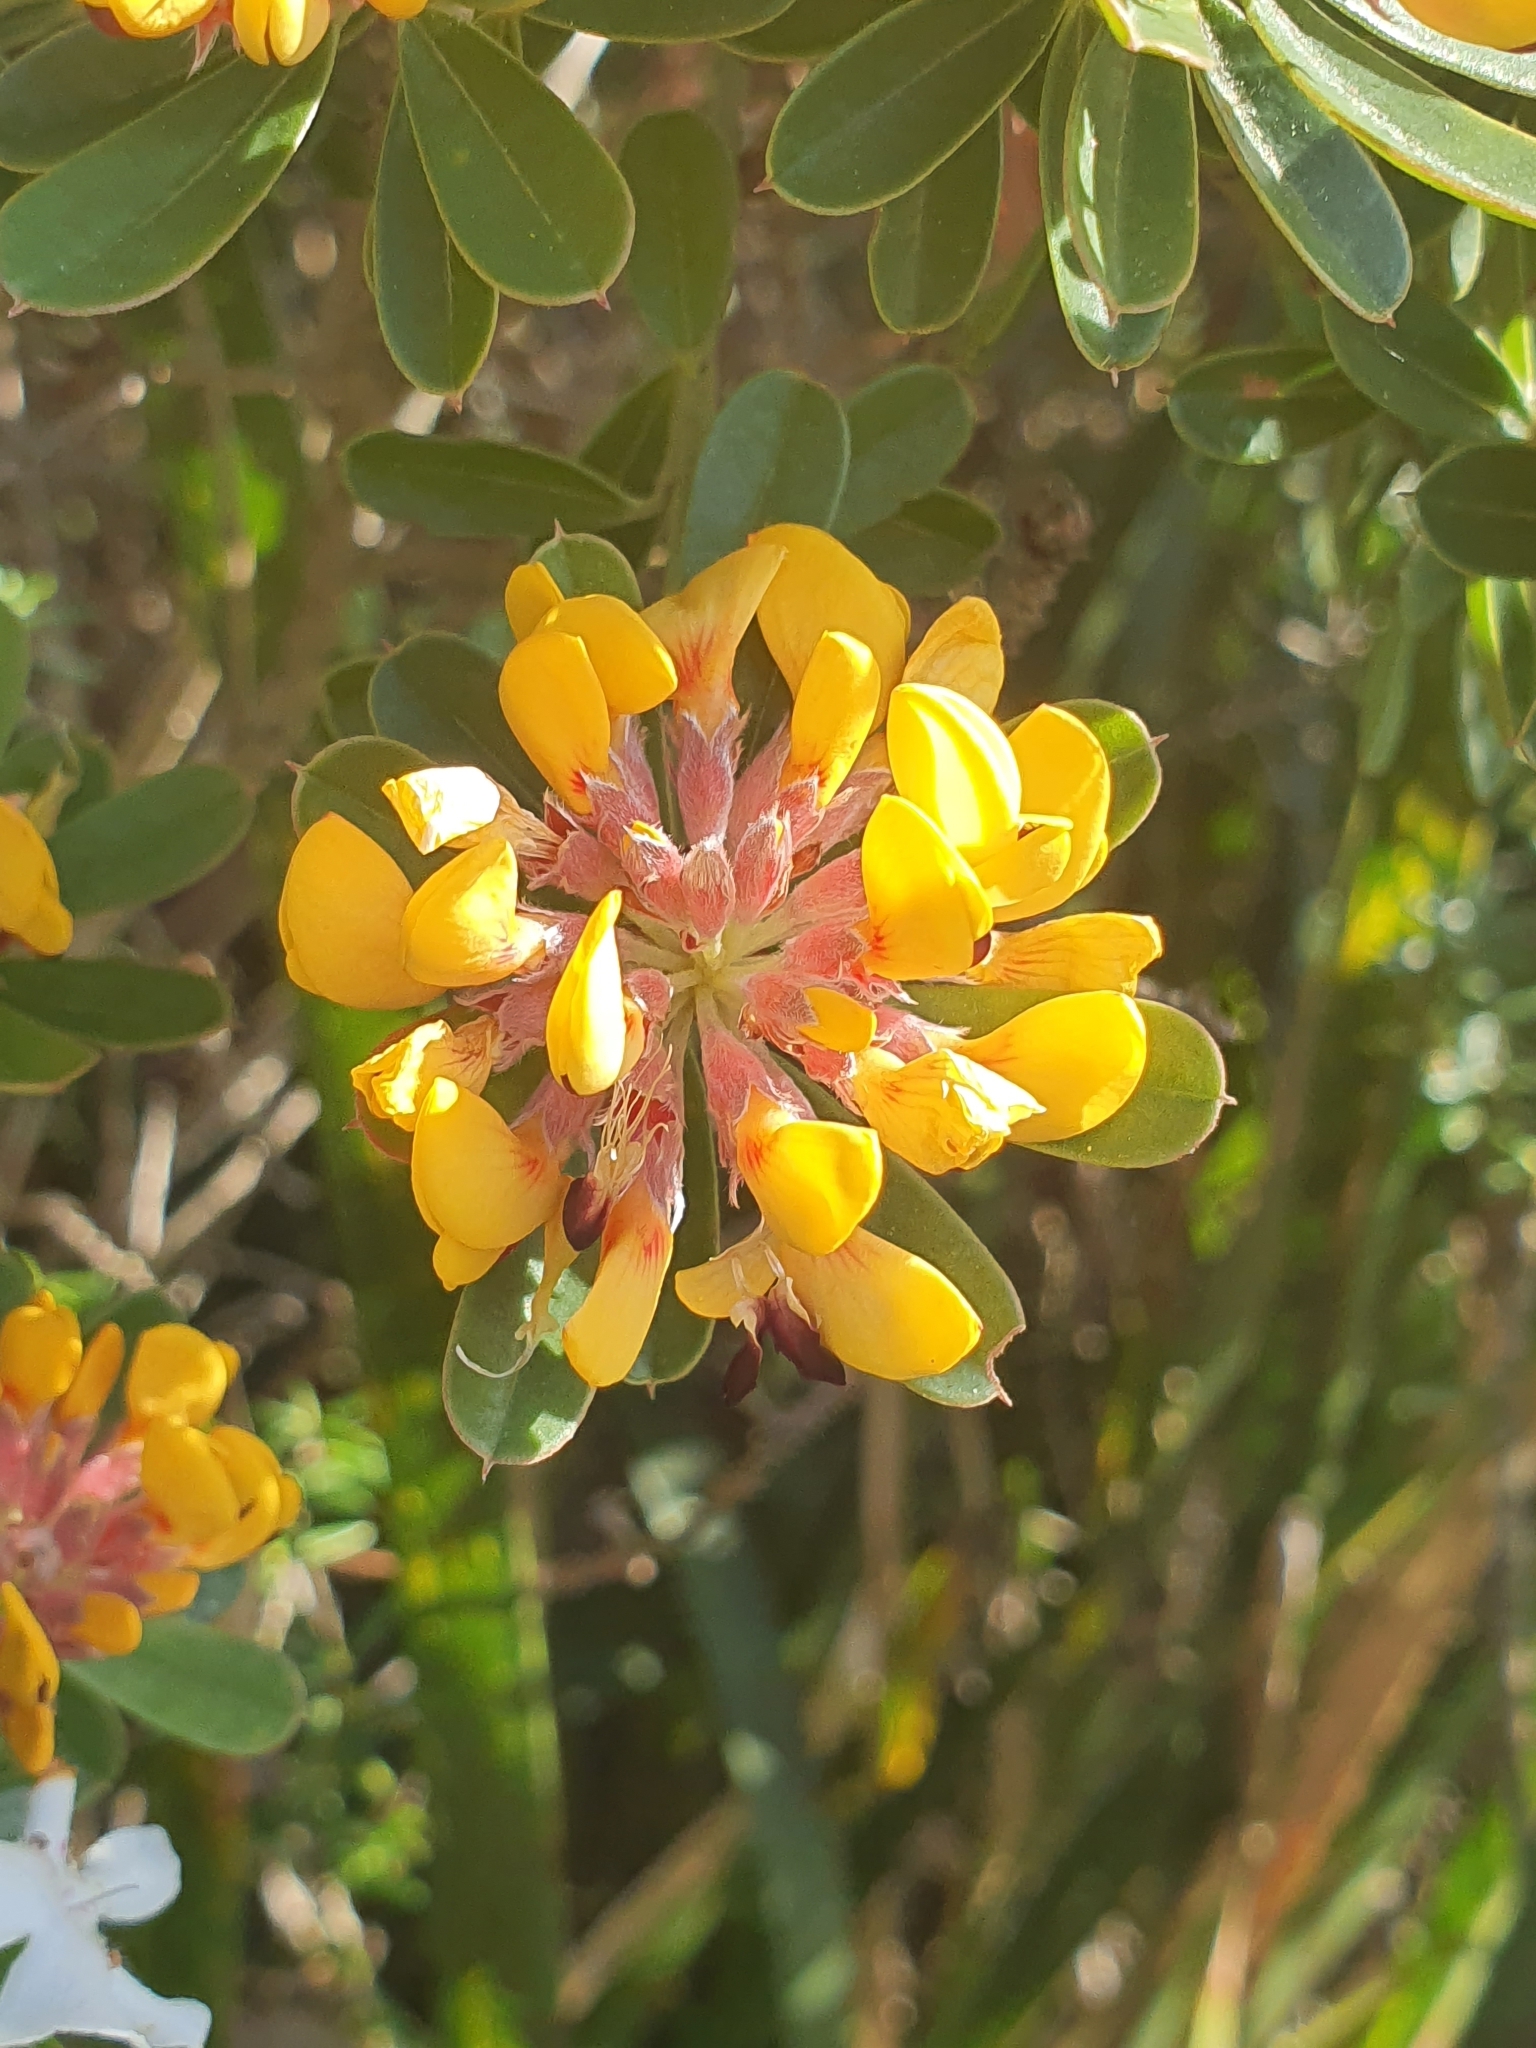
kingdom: Plantae
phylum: Tracheophyta
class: Magnoliopsida
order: Fabales
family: Fabaceae
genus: Pultenaea
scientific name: Pultenaea daphnoides
